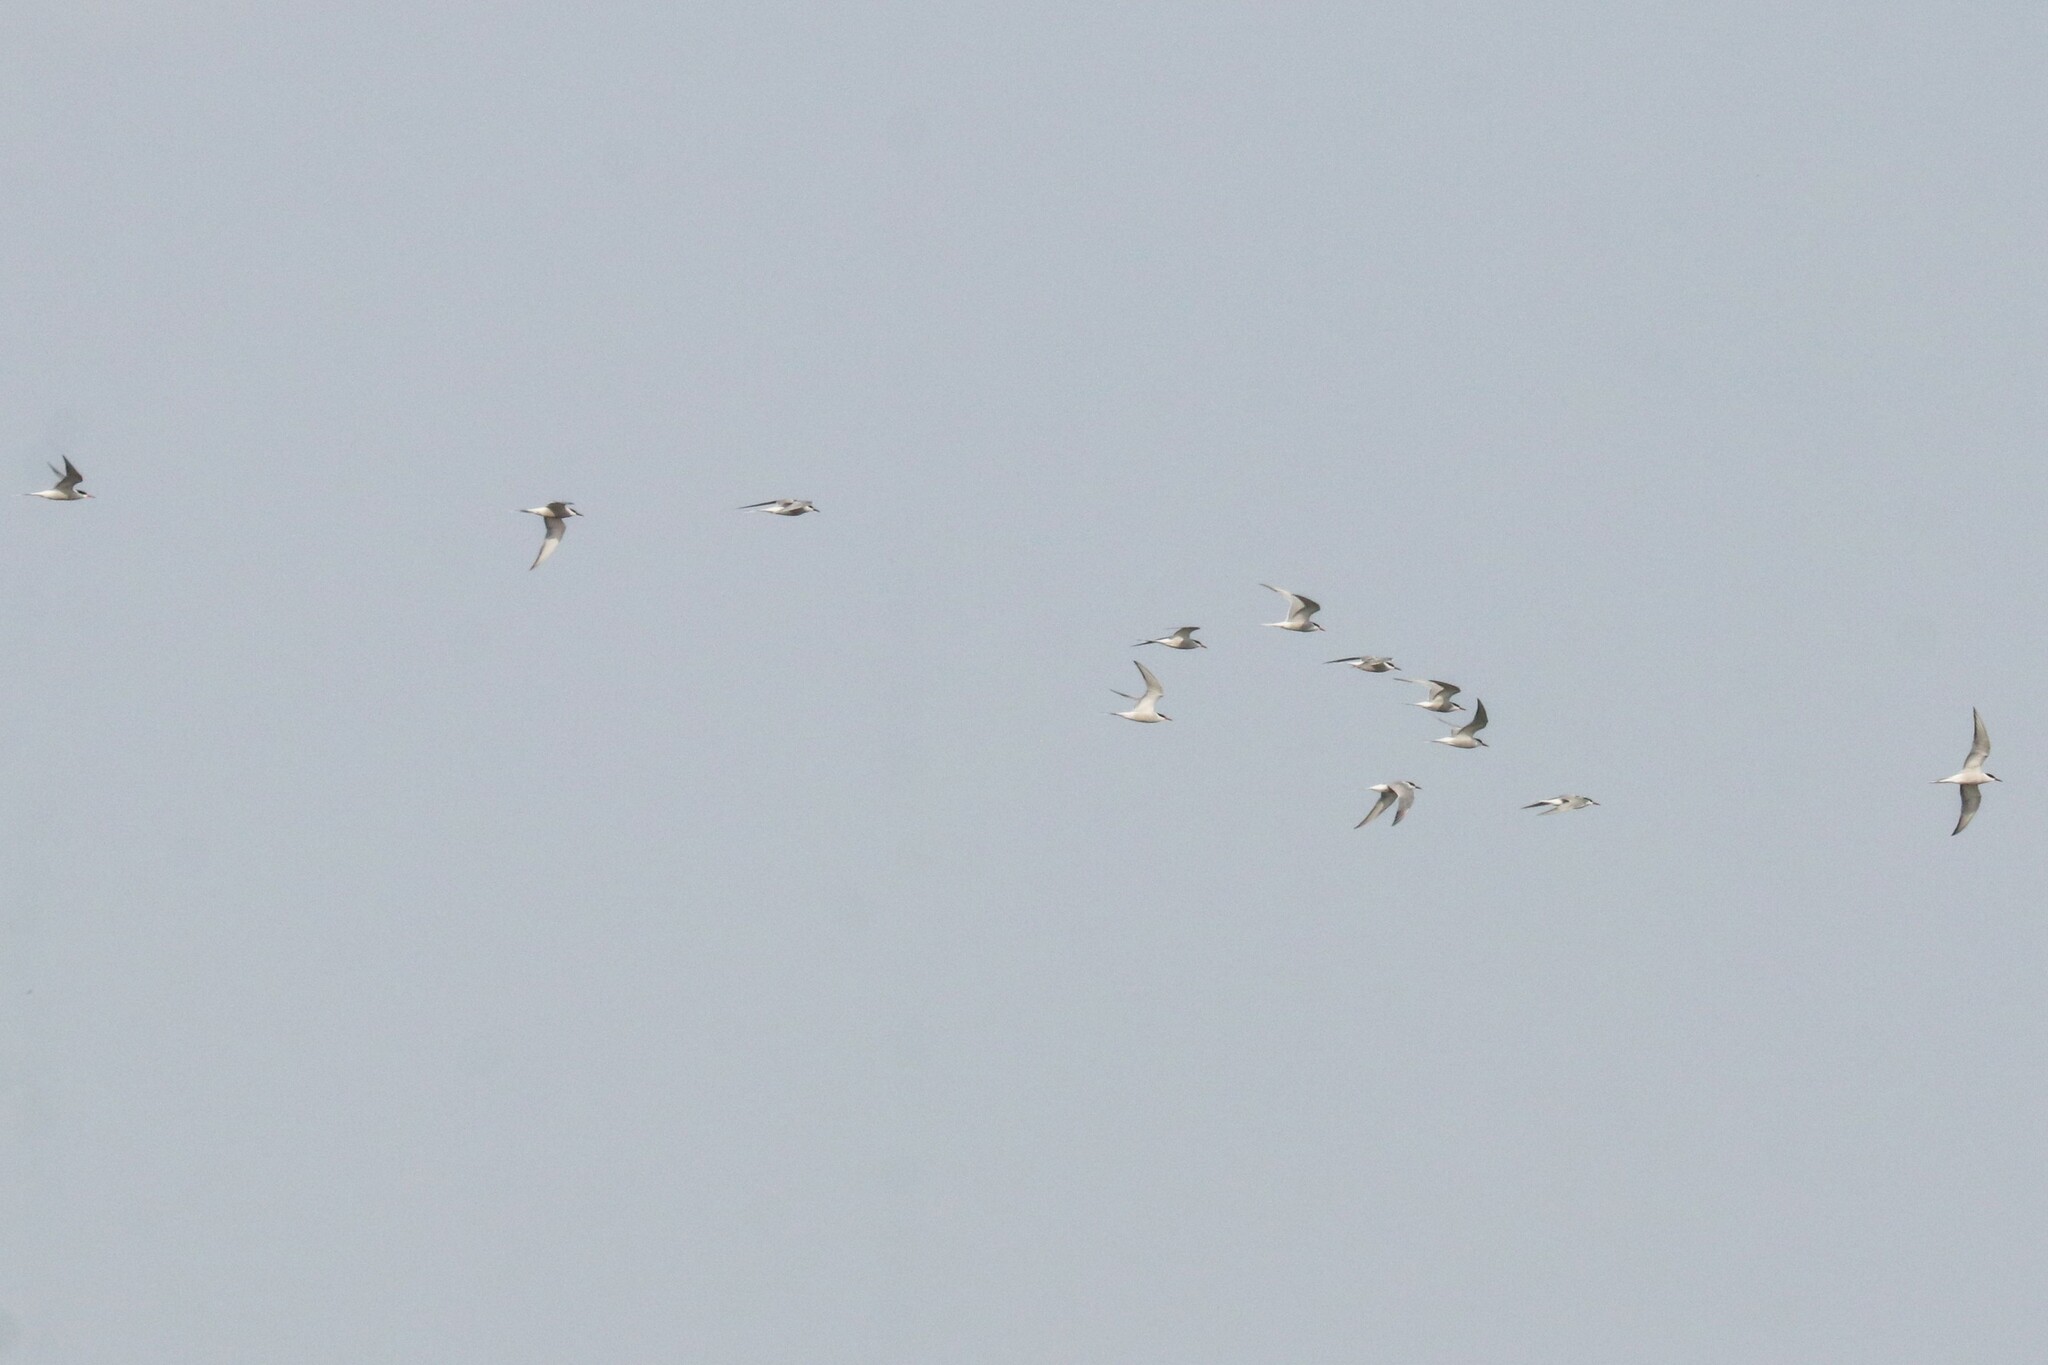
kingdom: Animalia
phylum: Chordata
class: Aves
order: Charadriiformes
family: Laridae
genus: Sterna
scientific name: Sterna hirundo
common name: Common tern
